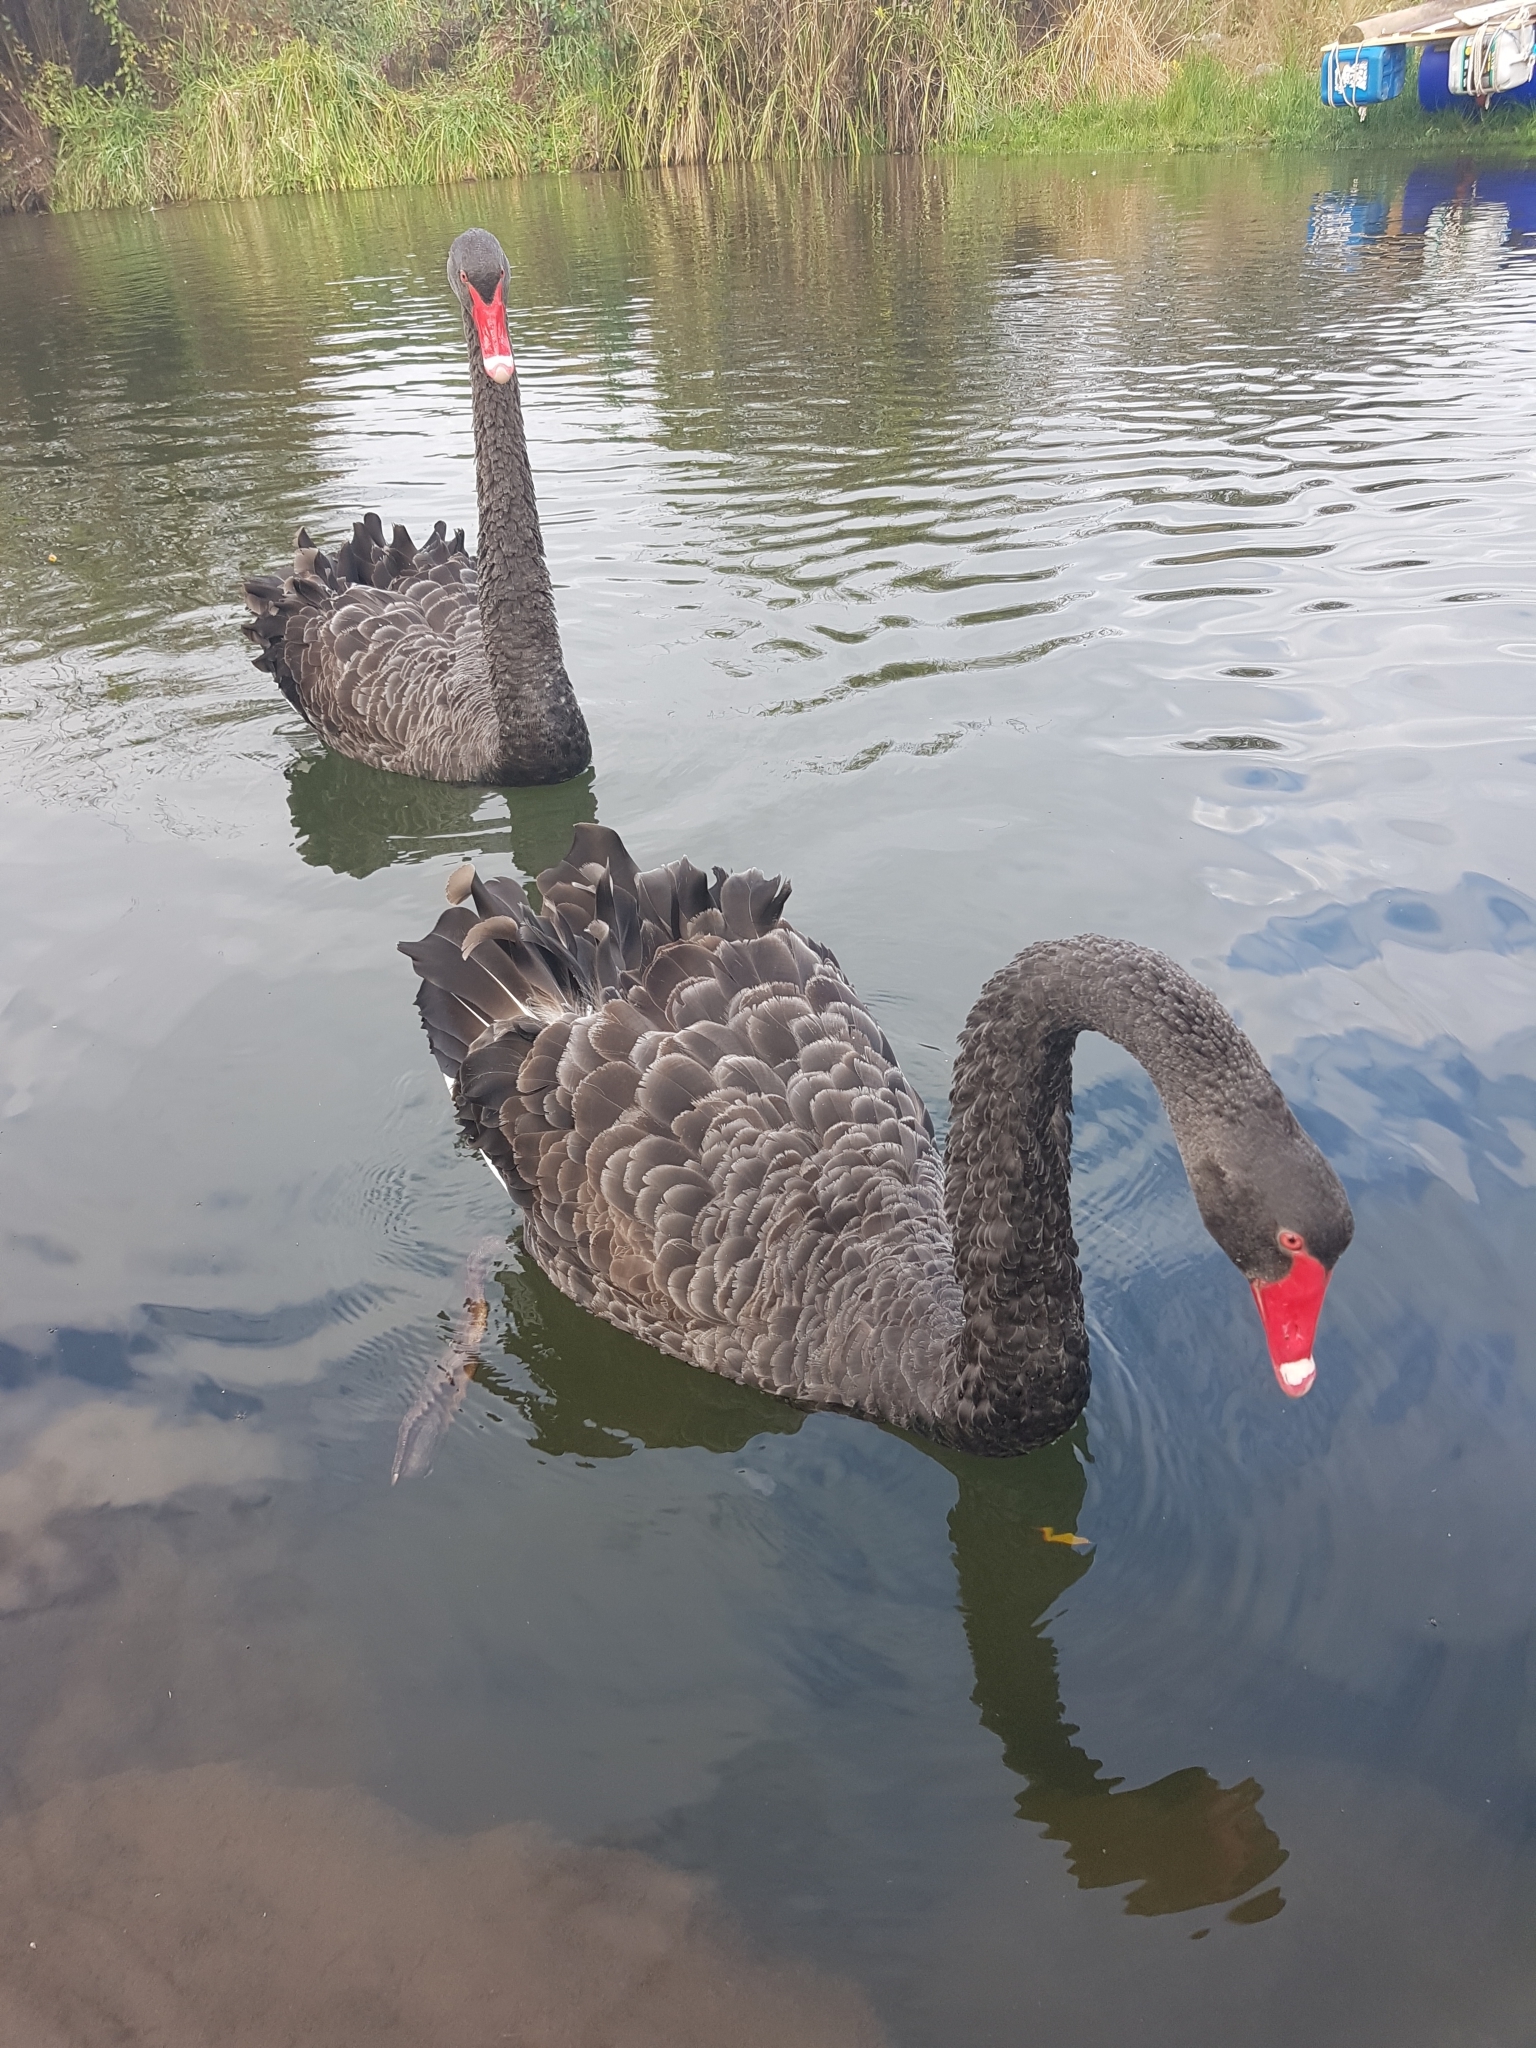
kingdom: Animalia
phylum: Chordata
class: Aves
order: Anseriformes
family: Anatidae
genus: Cygnus
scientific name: Cygnus atratus
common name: Black swan
